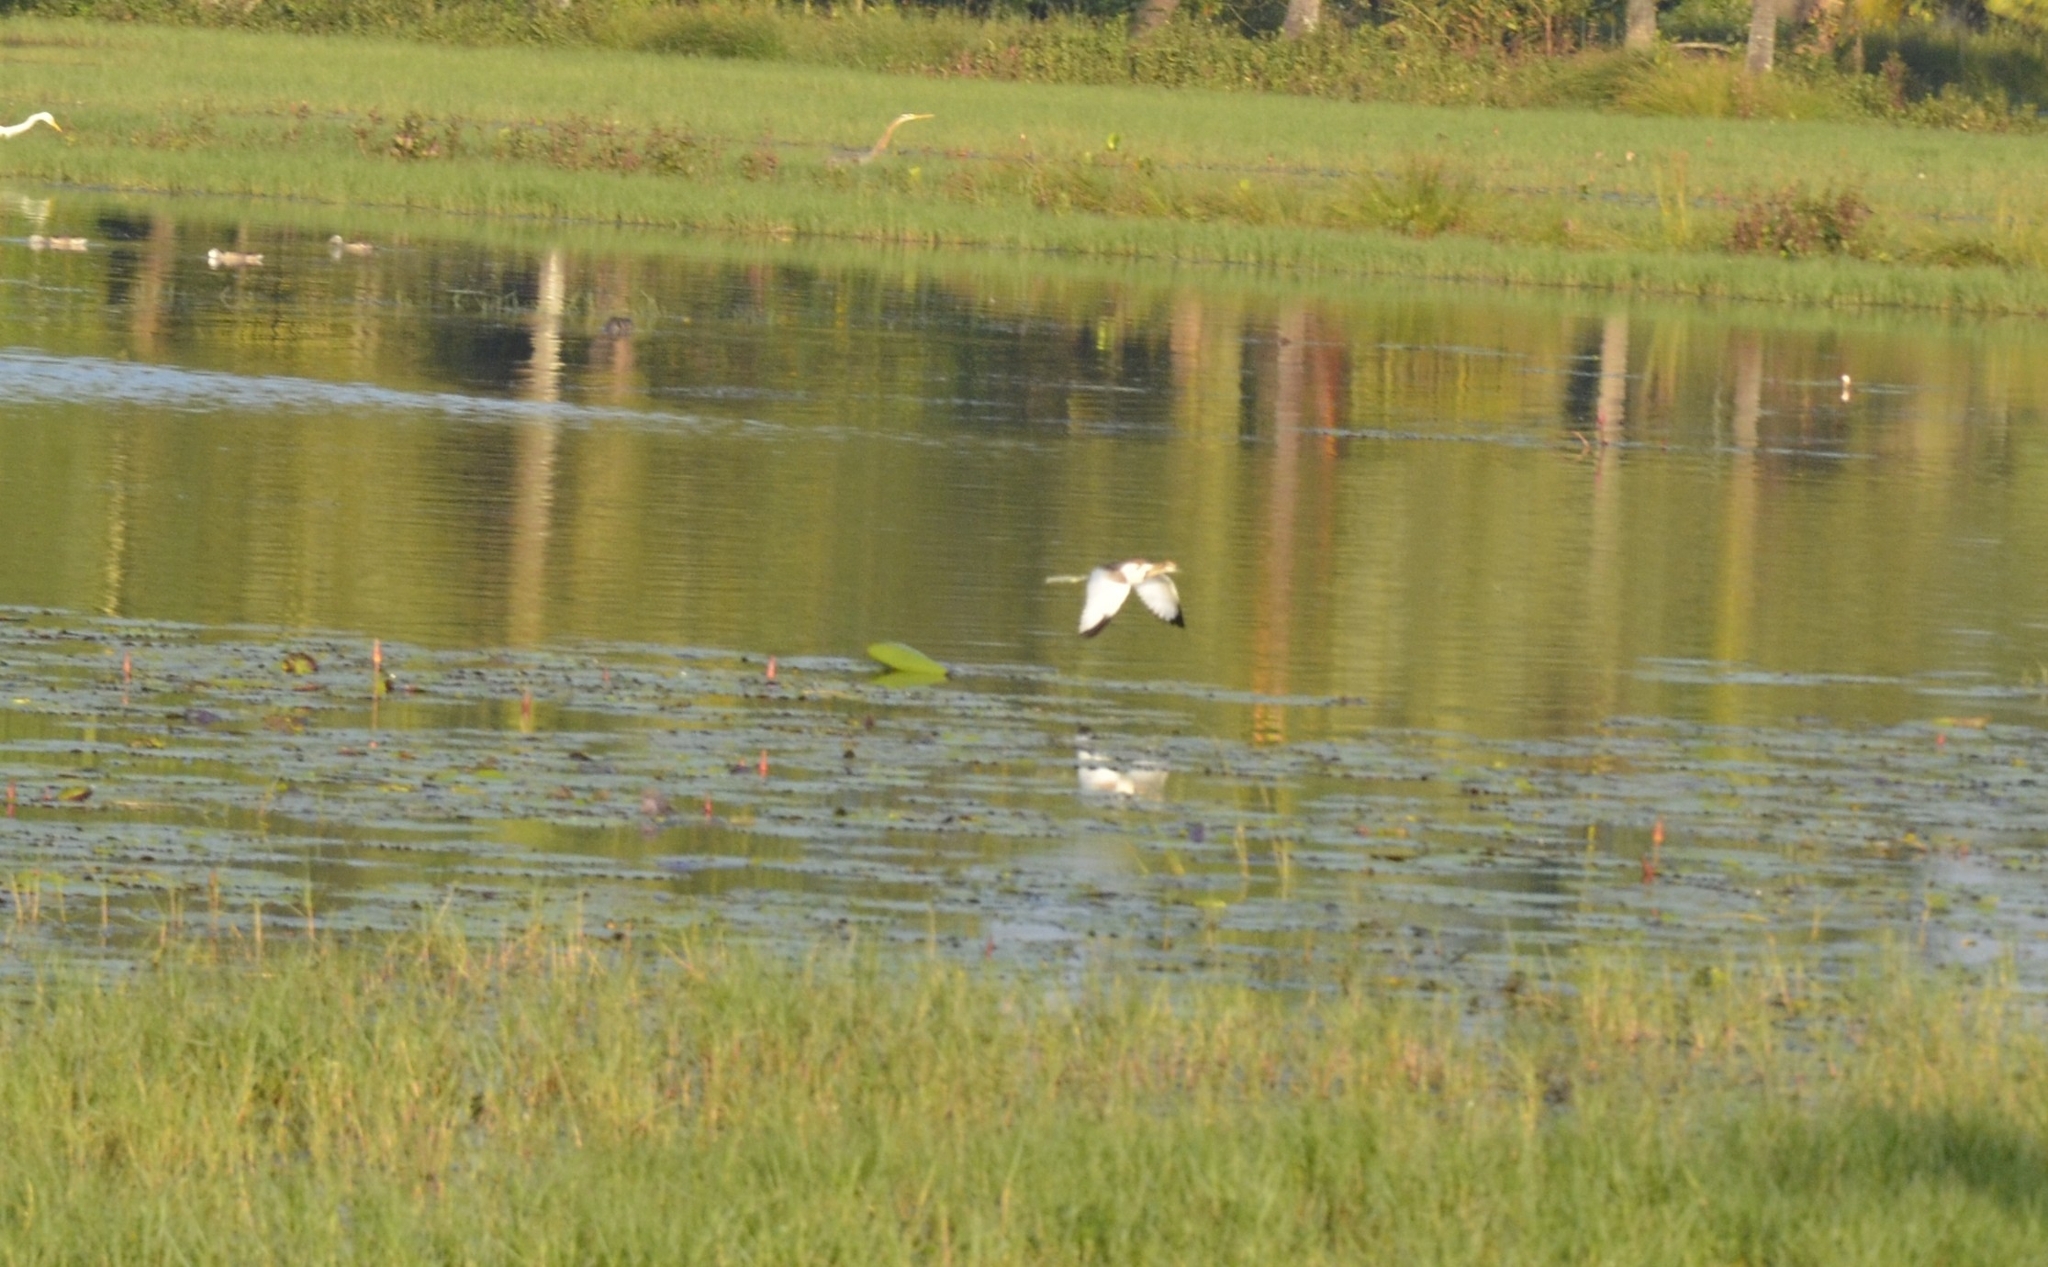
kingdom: Animalia
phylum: Chordata
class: Aves
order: Charadriiformes
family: Jacanidae
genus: Hydrophasianus
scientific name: Hydrophasianus chirurgus
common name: Pheasant-tailed jacana
